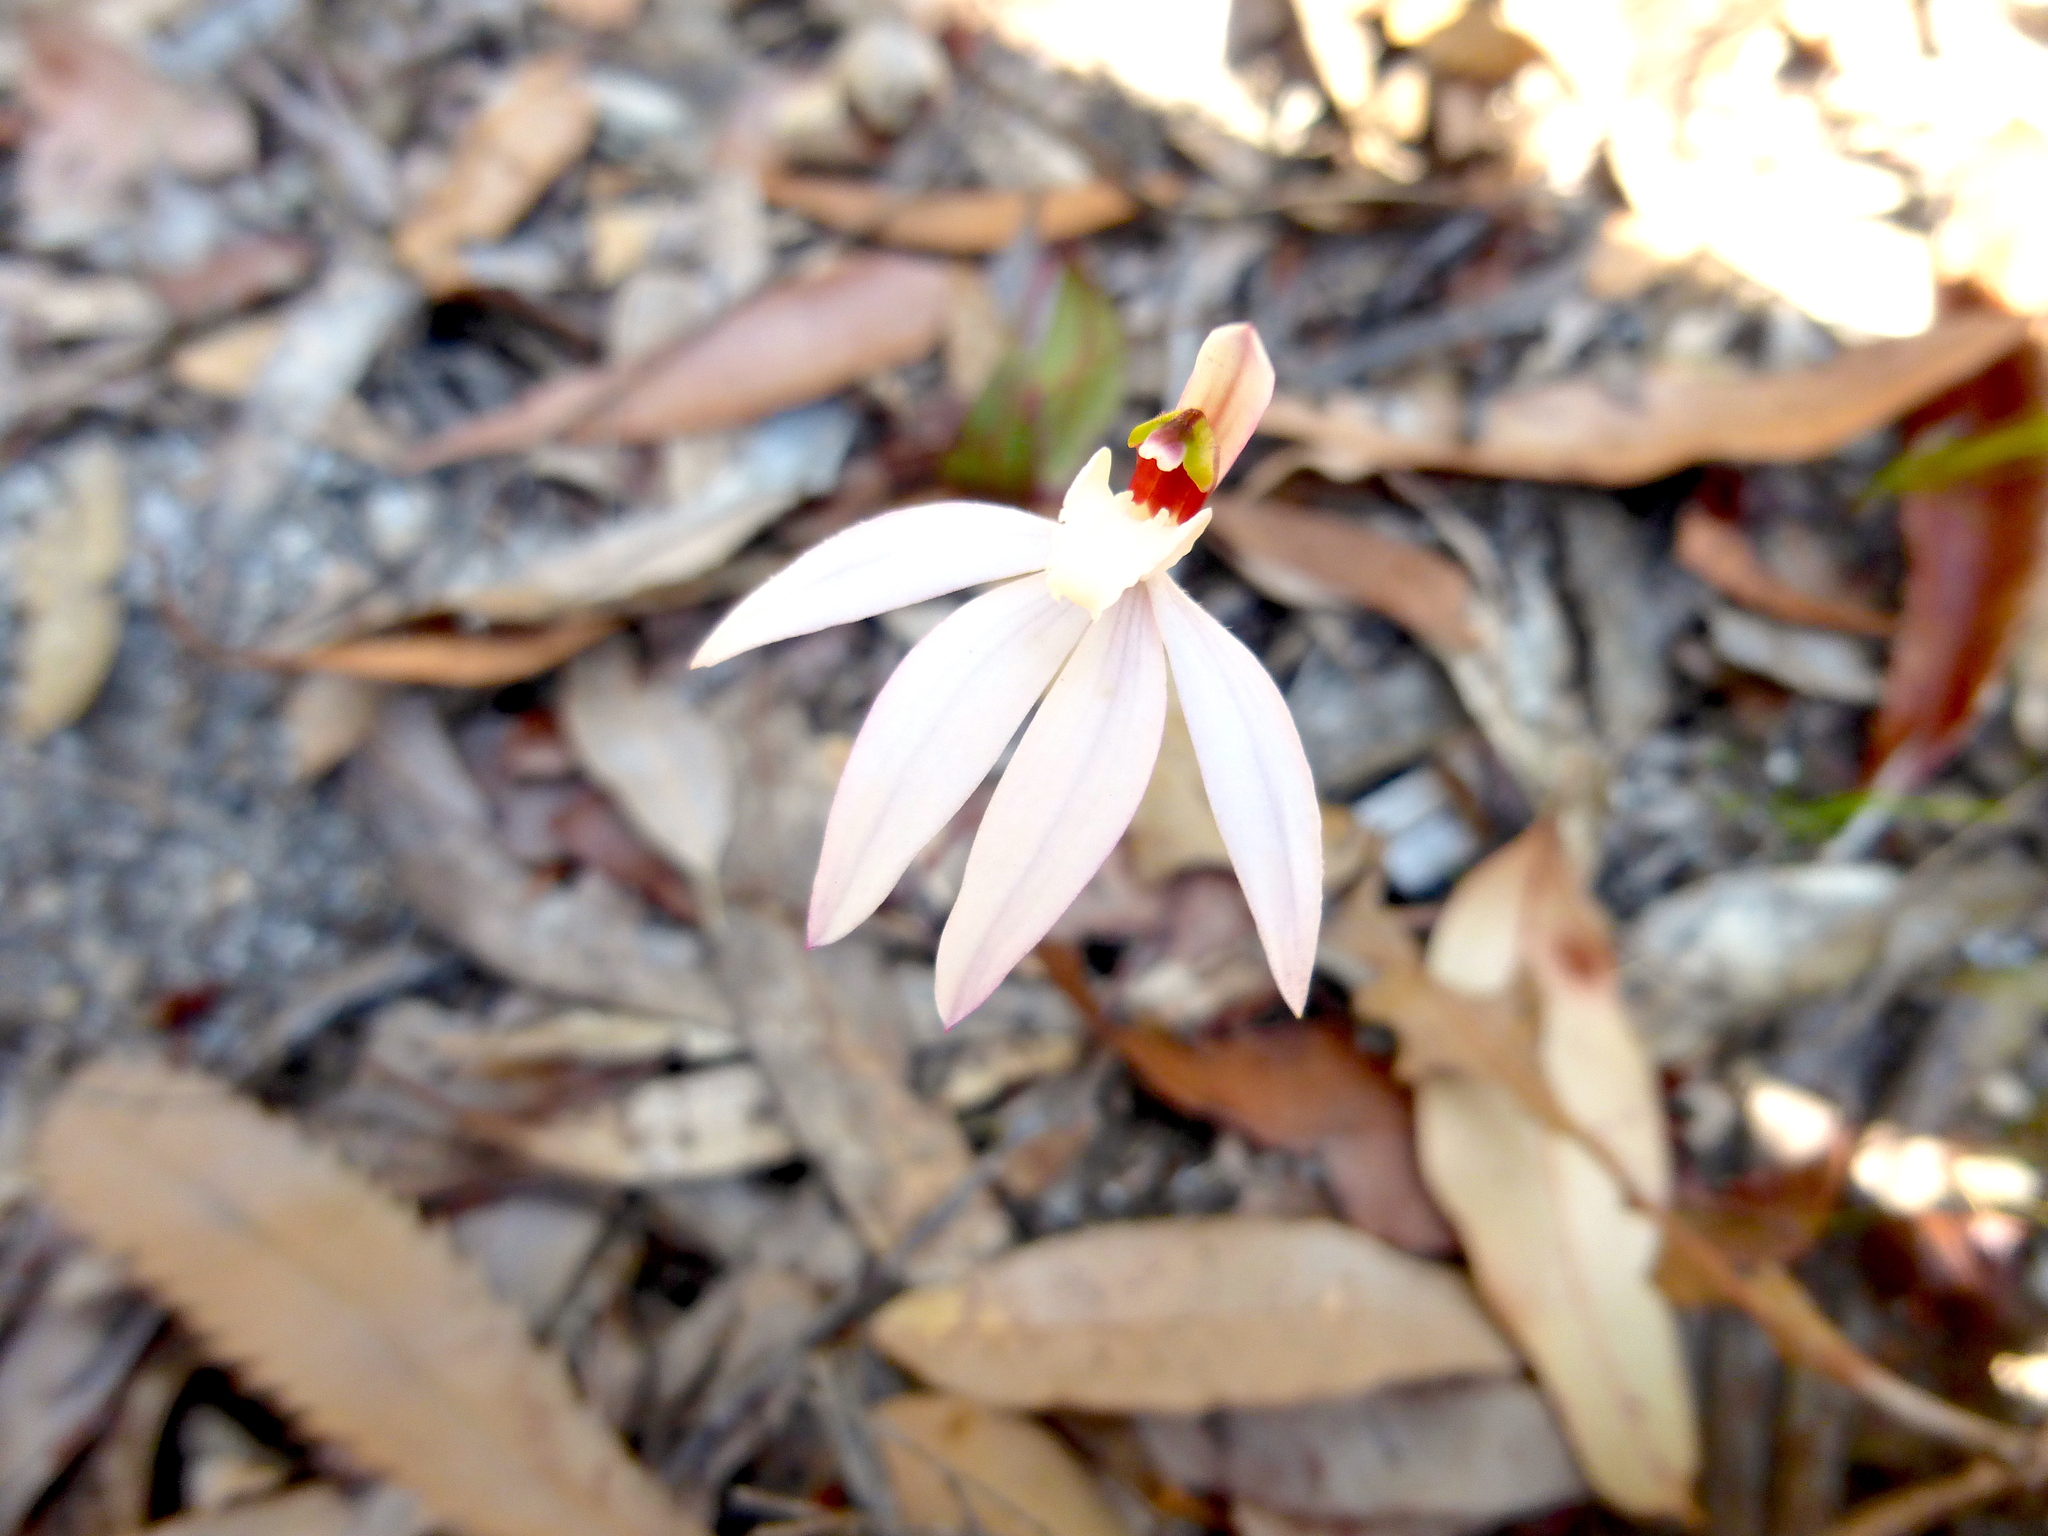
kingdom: Plantae
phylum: Tracheophyta
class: Liliopsida
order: Asparagales
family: Orchidaceae
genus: Caladenia
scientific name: Caladenia catenata
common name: White caladenia
